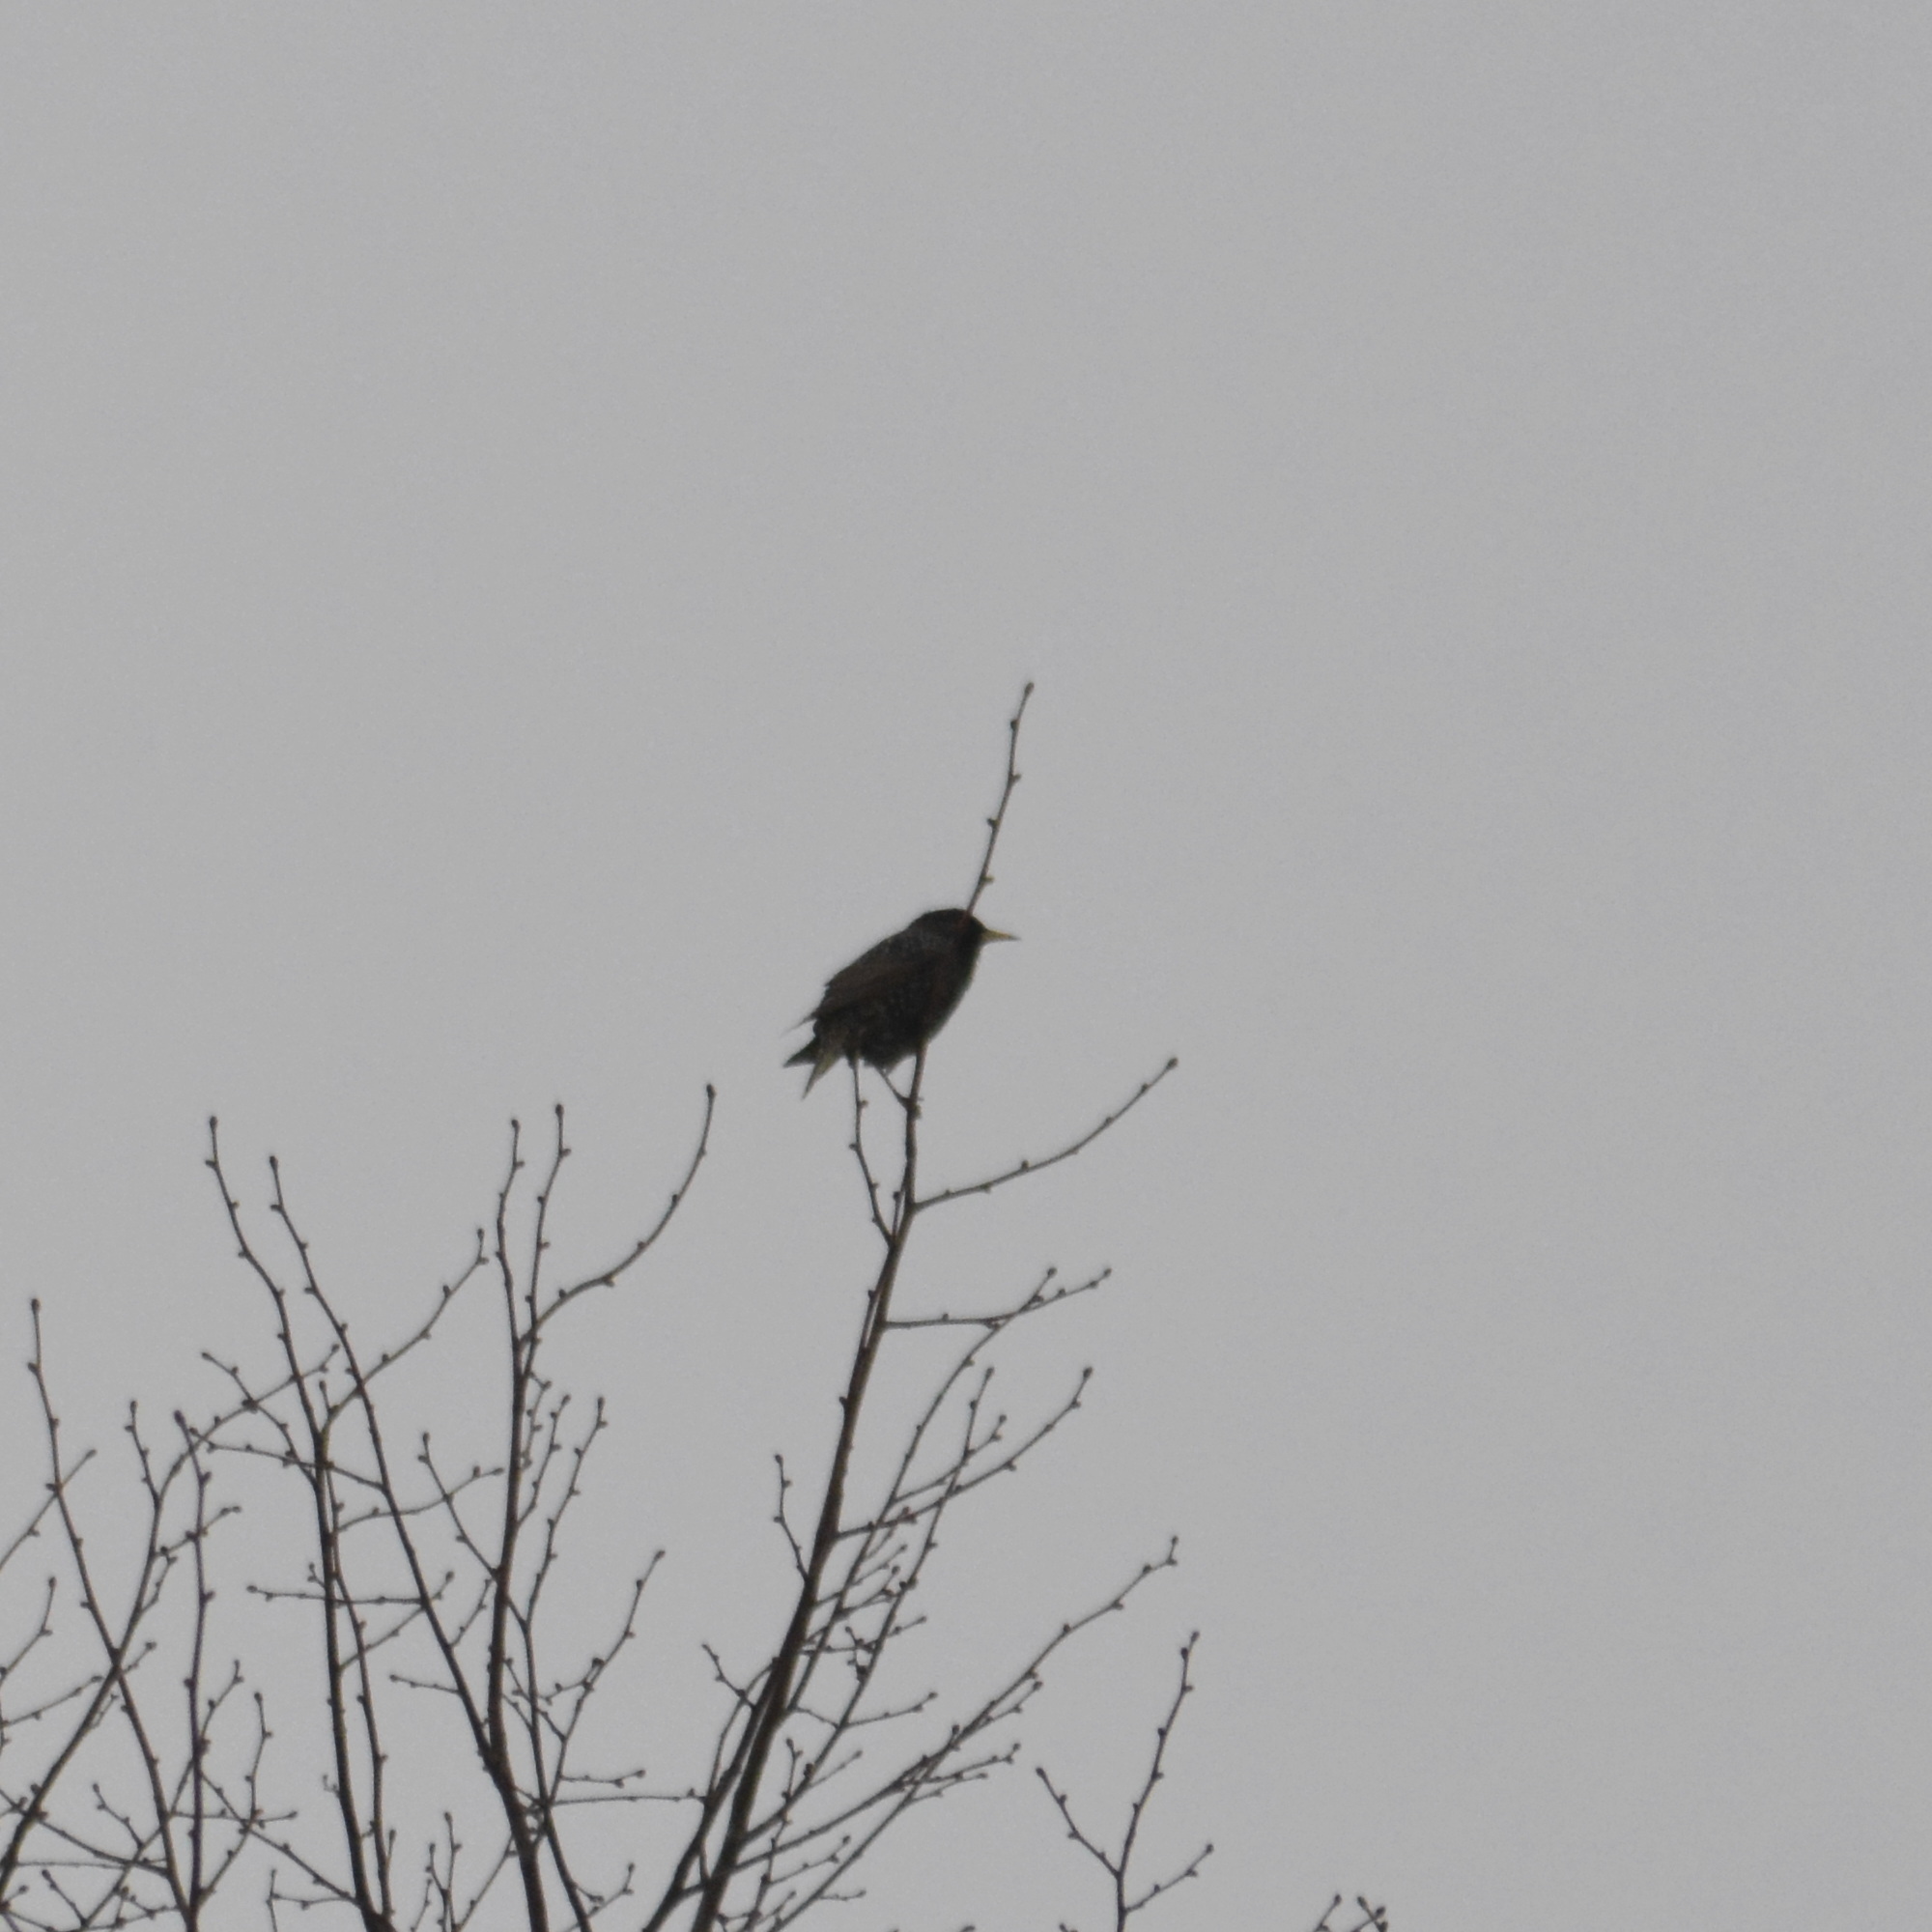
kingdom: Animalia
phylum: Chordata
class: Aves
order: Passeriformes
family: Sturnidae
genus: Sturnus
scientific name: Sturnus vulgaris
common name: Common starling
